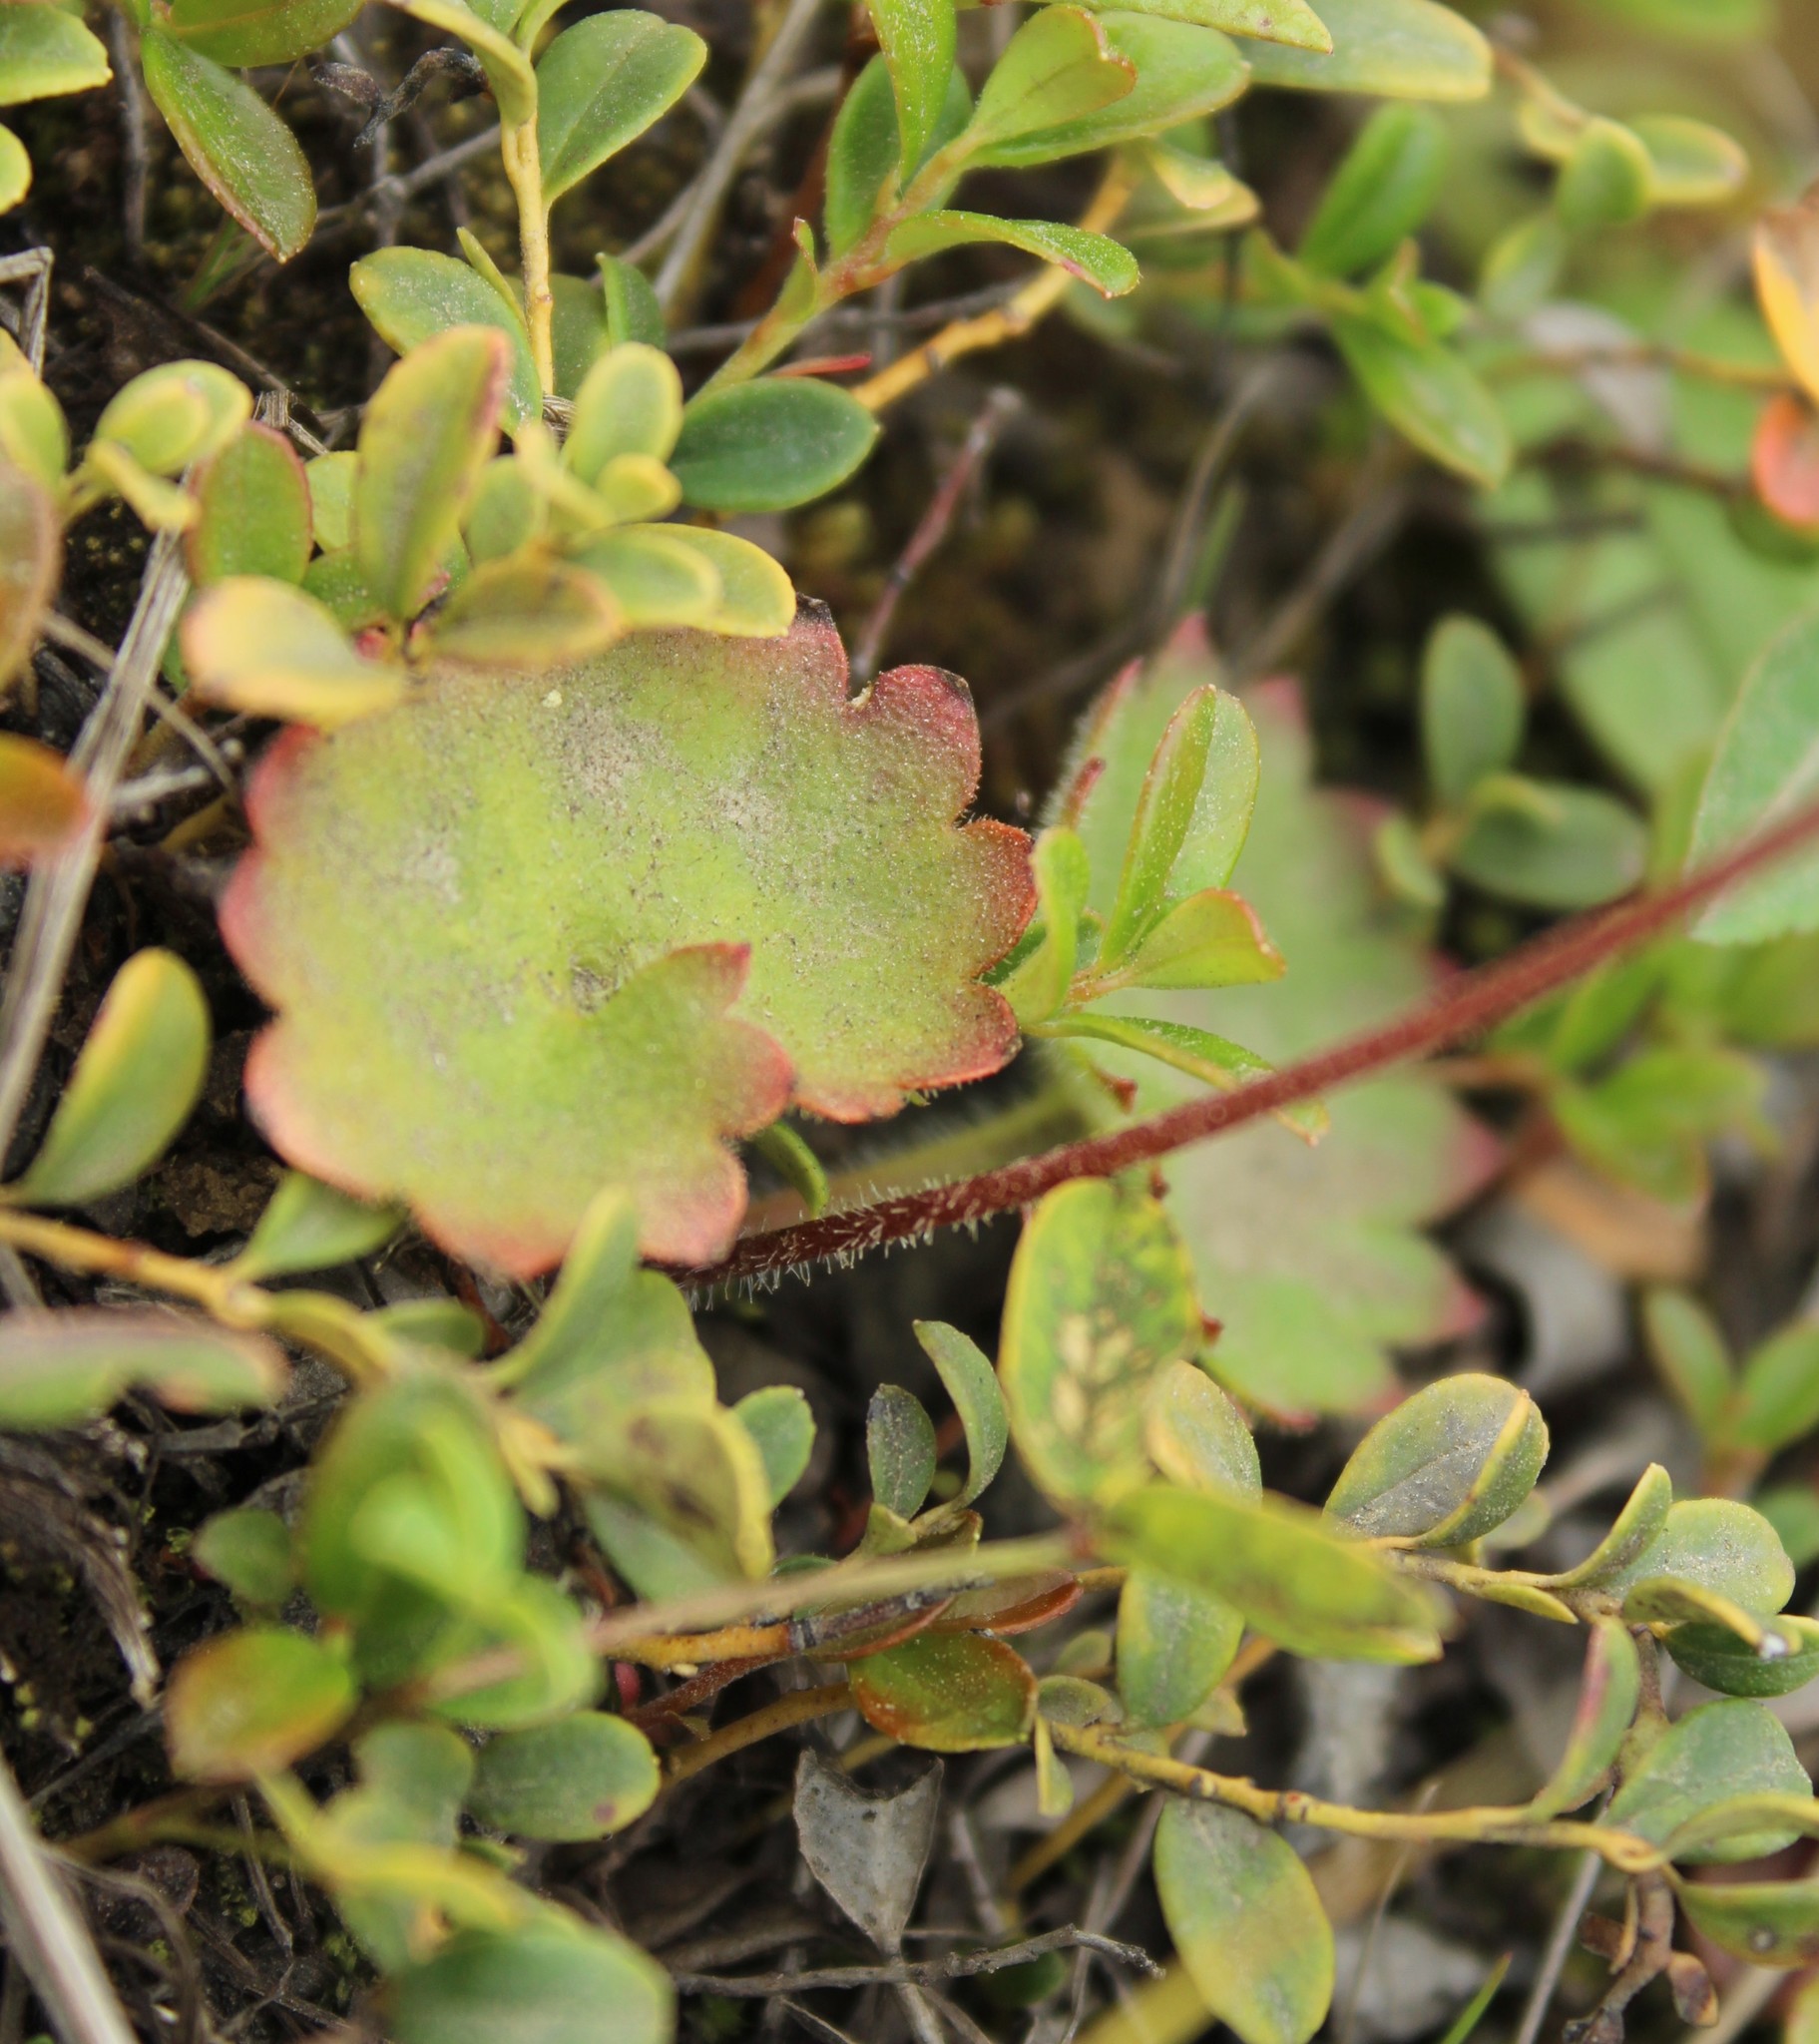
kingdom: Plantae
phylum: Tracheophyta
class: Magnoliopsida
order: Saxifragales
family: Saxifragaceae
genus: Micranthes
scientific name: Micranthes nelsoniana
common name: Nelson's saxifrage
